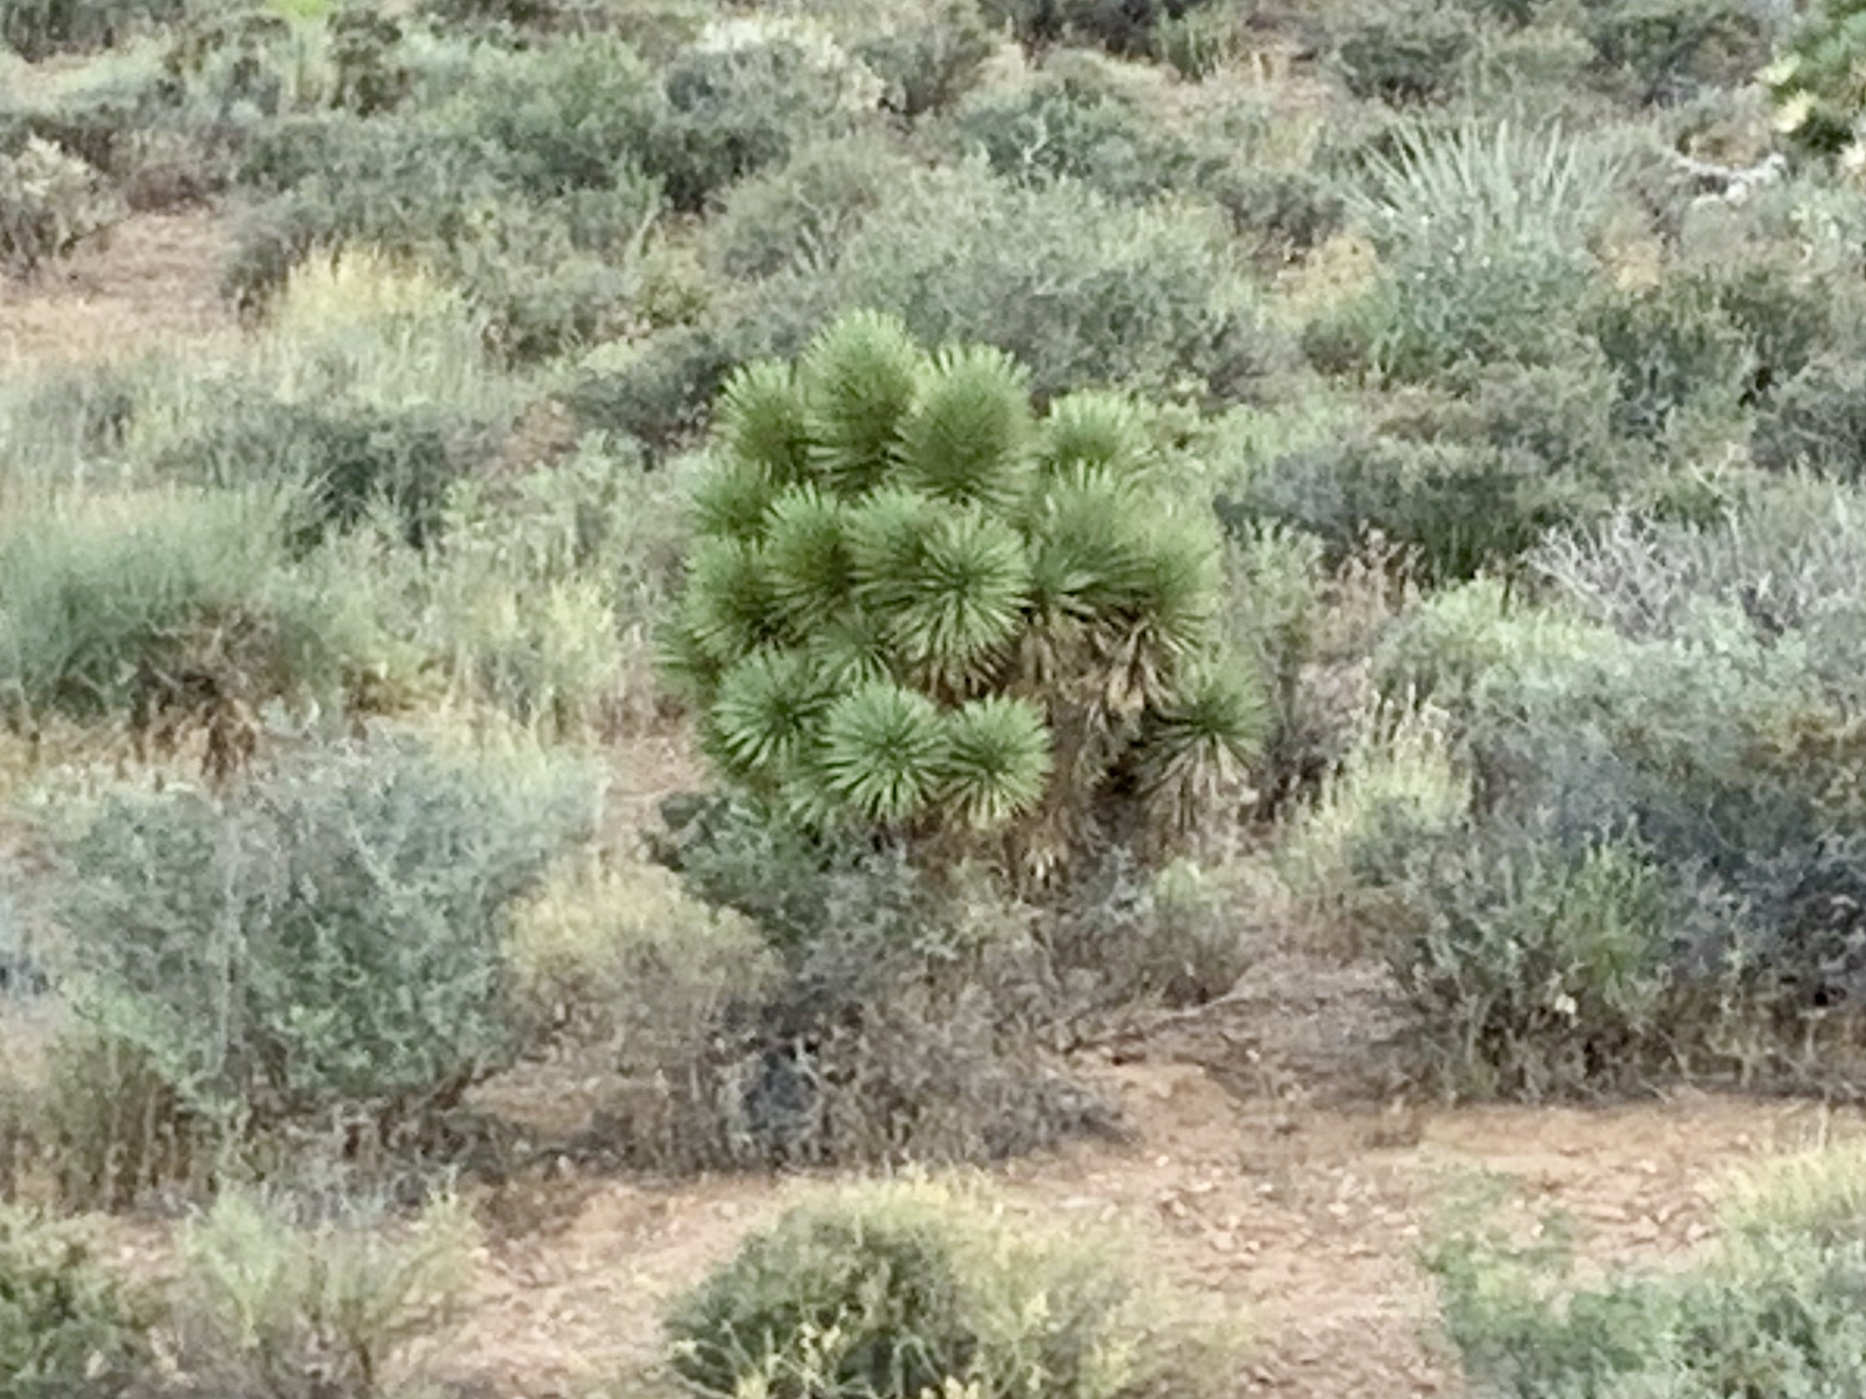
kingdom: Plantae
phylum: Tracheophyta
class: Liliopsida
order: Asparagales
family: Asparagaceae
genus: Yucca
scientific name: Yucca brevifolia
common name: Joshua tree
